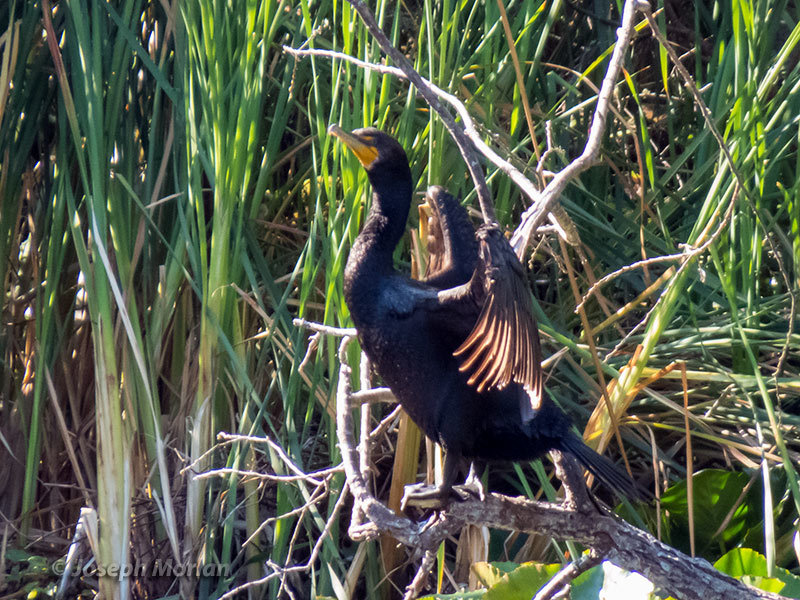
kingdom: Animalia
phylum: Chordata
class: Aves
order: Suliformes
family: Phalacrocoracidae
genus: Phalacrocorax
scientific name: Phalacrocorax auritus
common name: Double-crested cormorant
